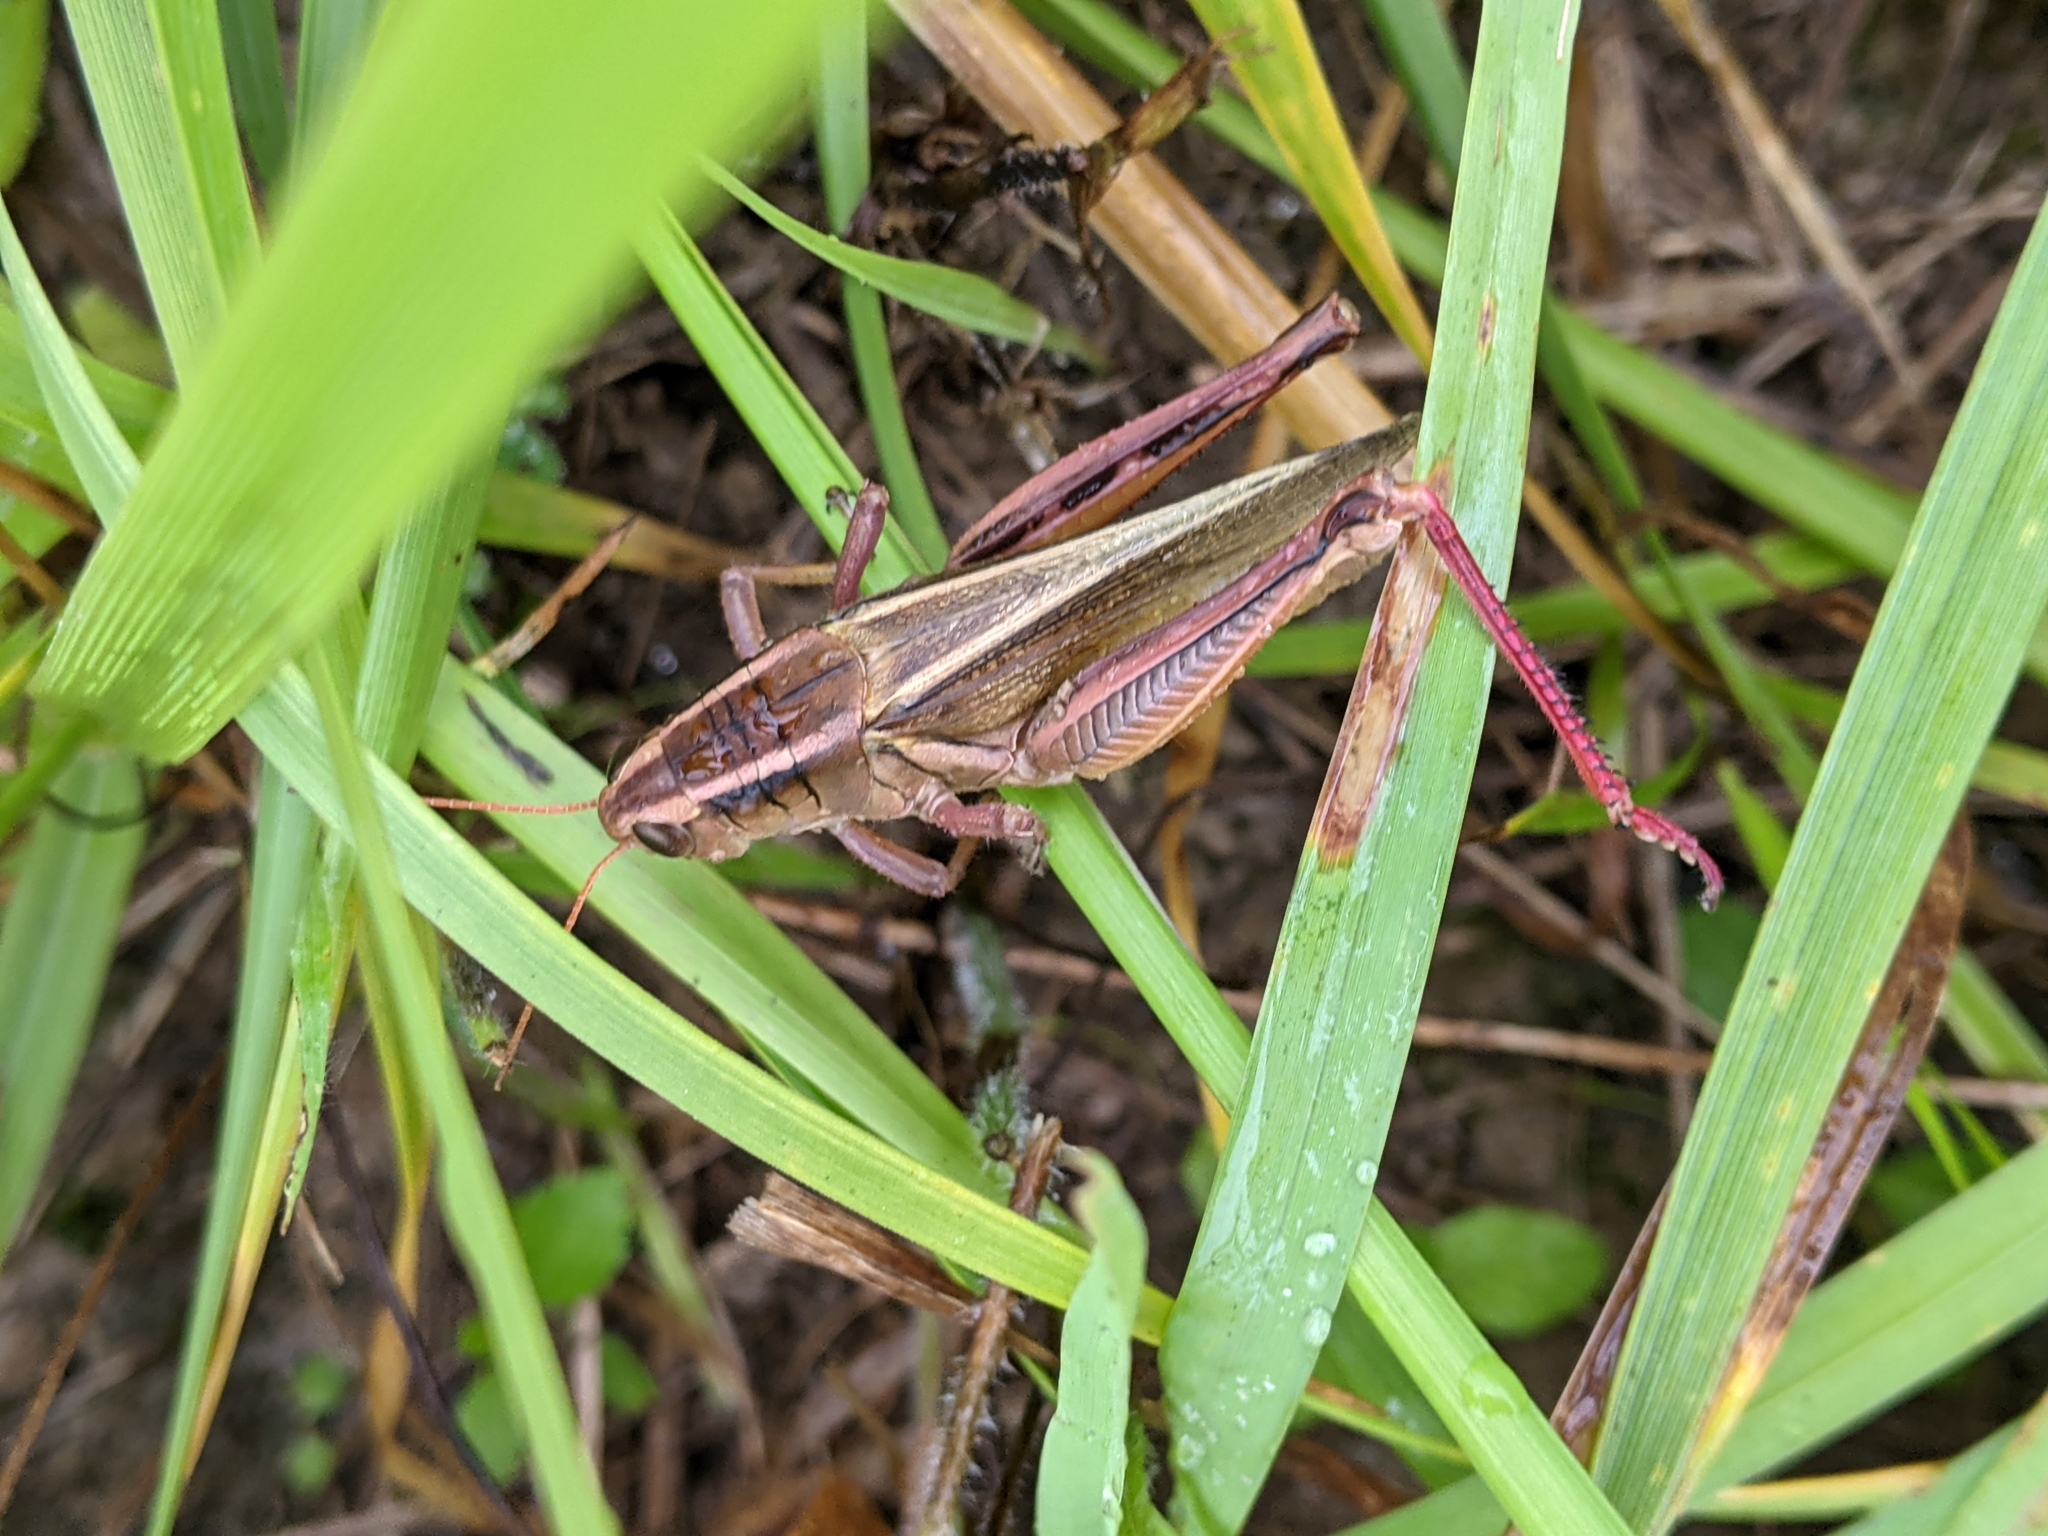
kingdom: Animalia
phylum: Arthropoda
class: Insecta
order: Orthoptera
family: Acrididae
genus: Melanoplus
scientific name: Melanoplus bivittatus
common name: Two-striped grasshopper
